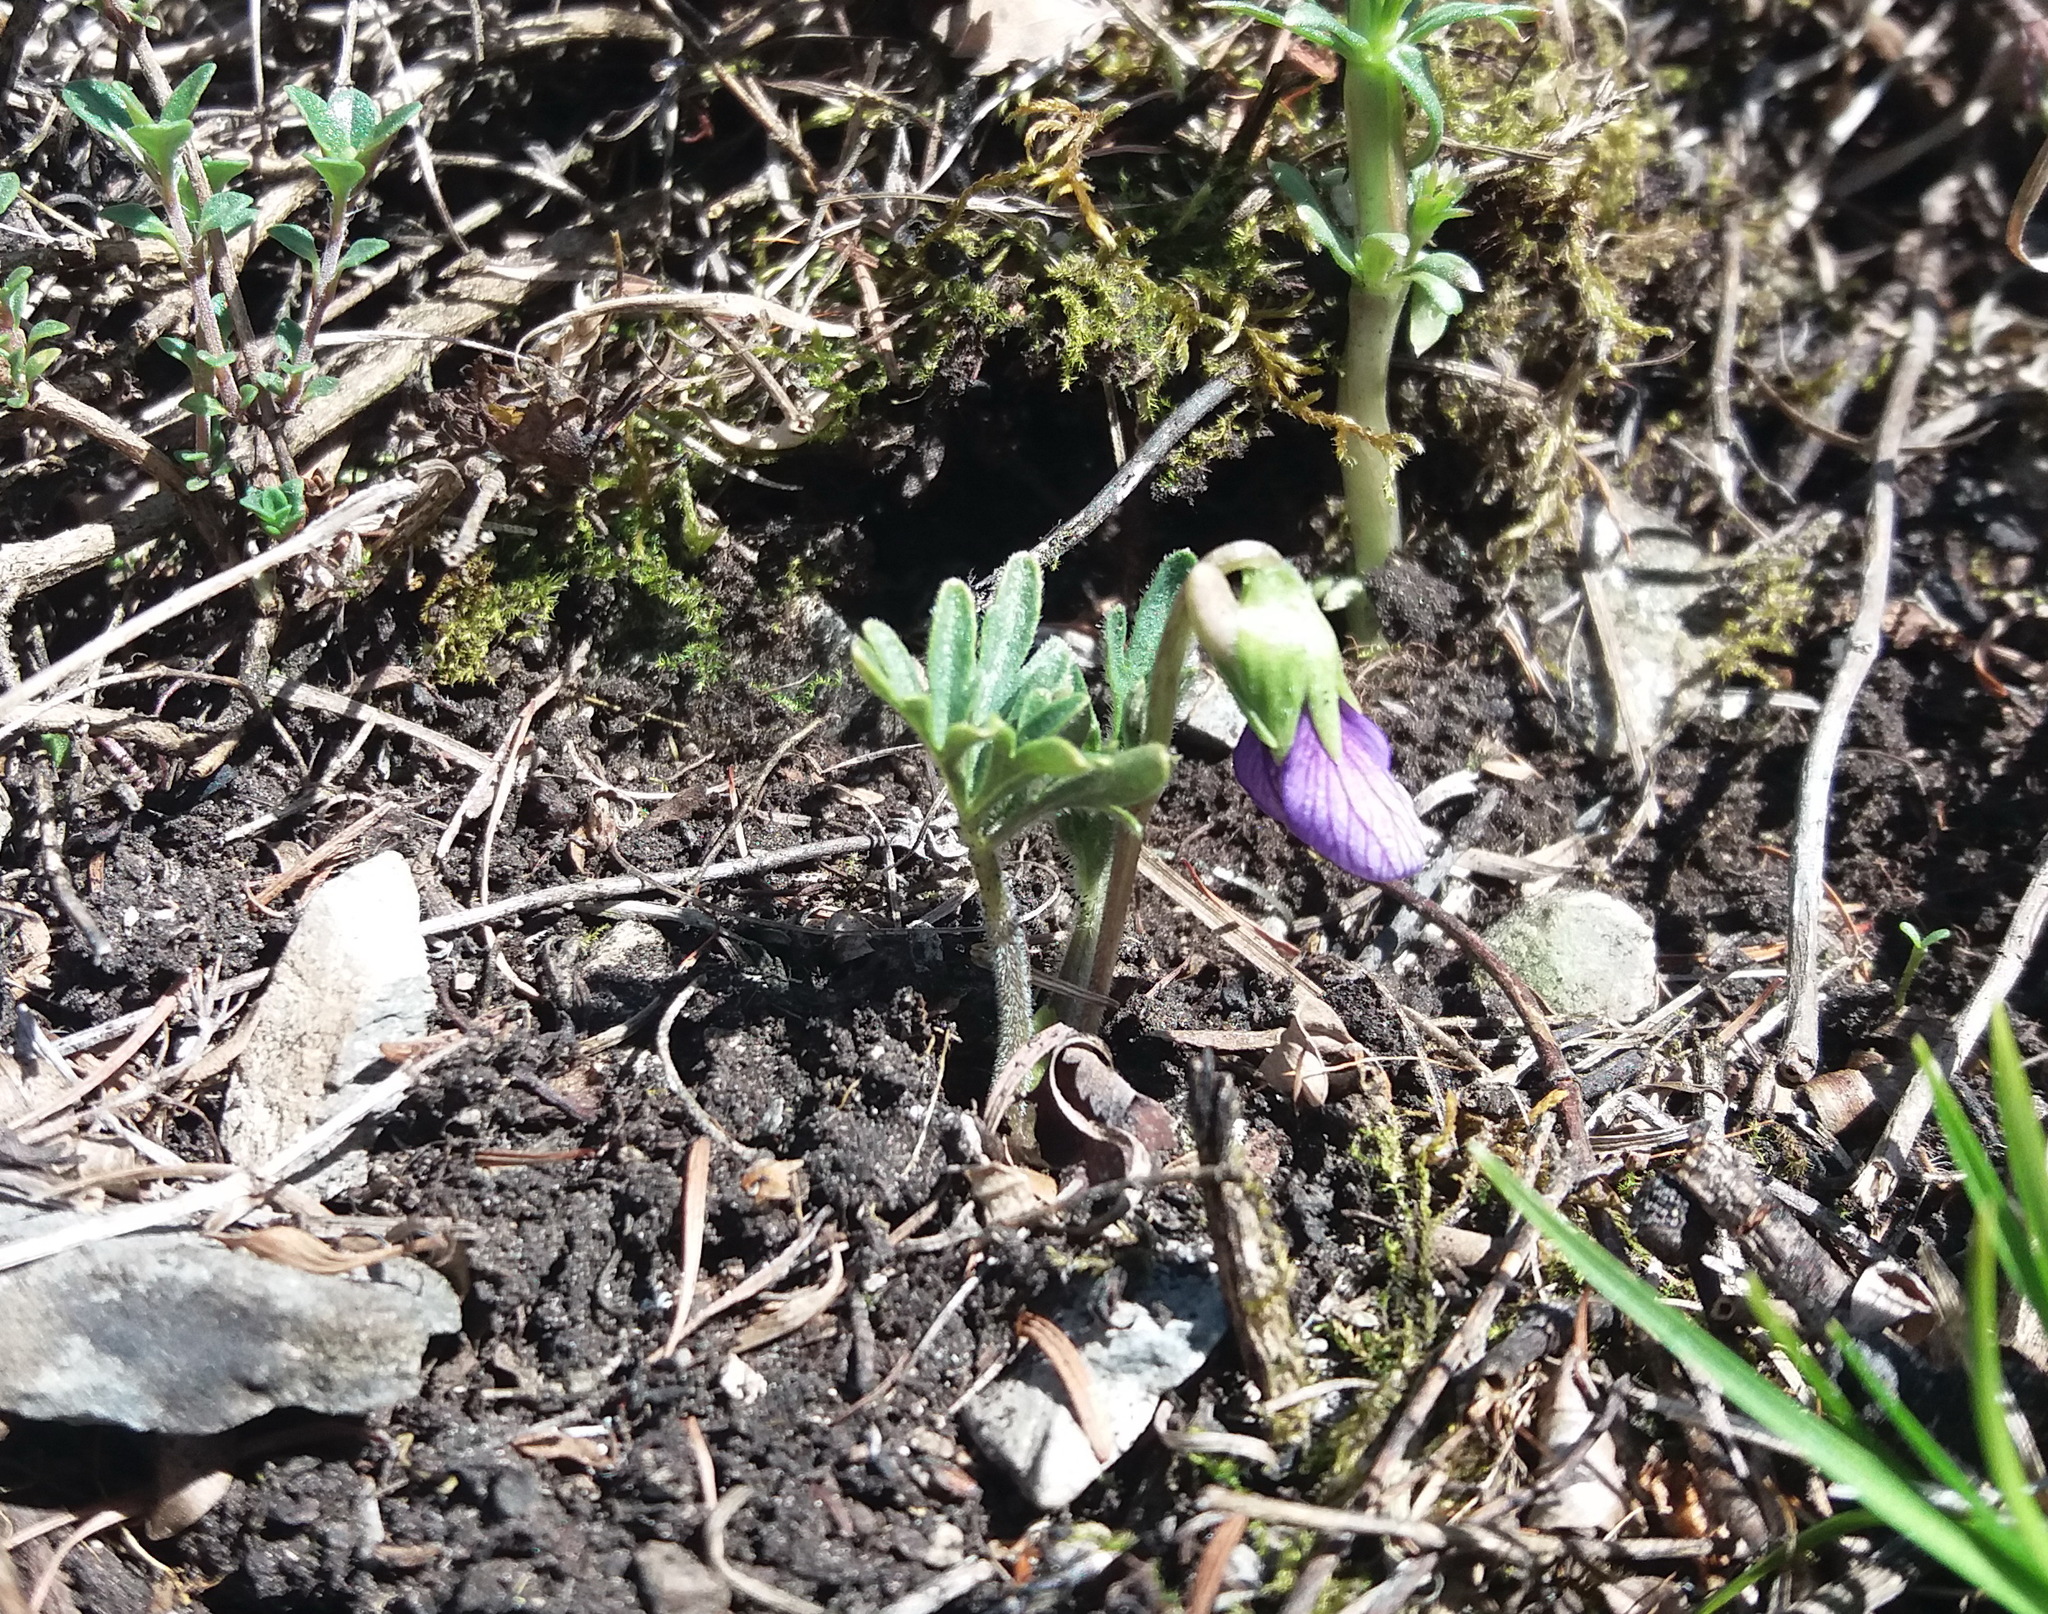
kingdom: Plantae
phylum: Tracheophyta
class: Magnoliopsida
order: Malpighiales
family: Violaceae
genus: Viola
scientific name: Viola multifida
